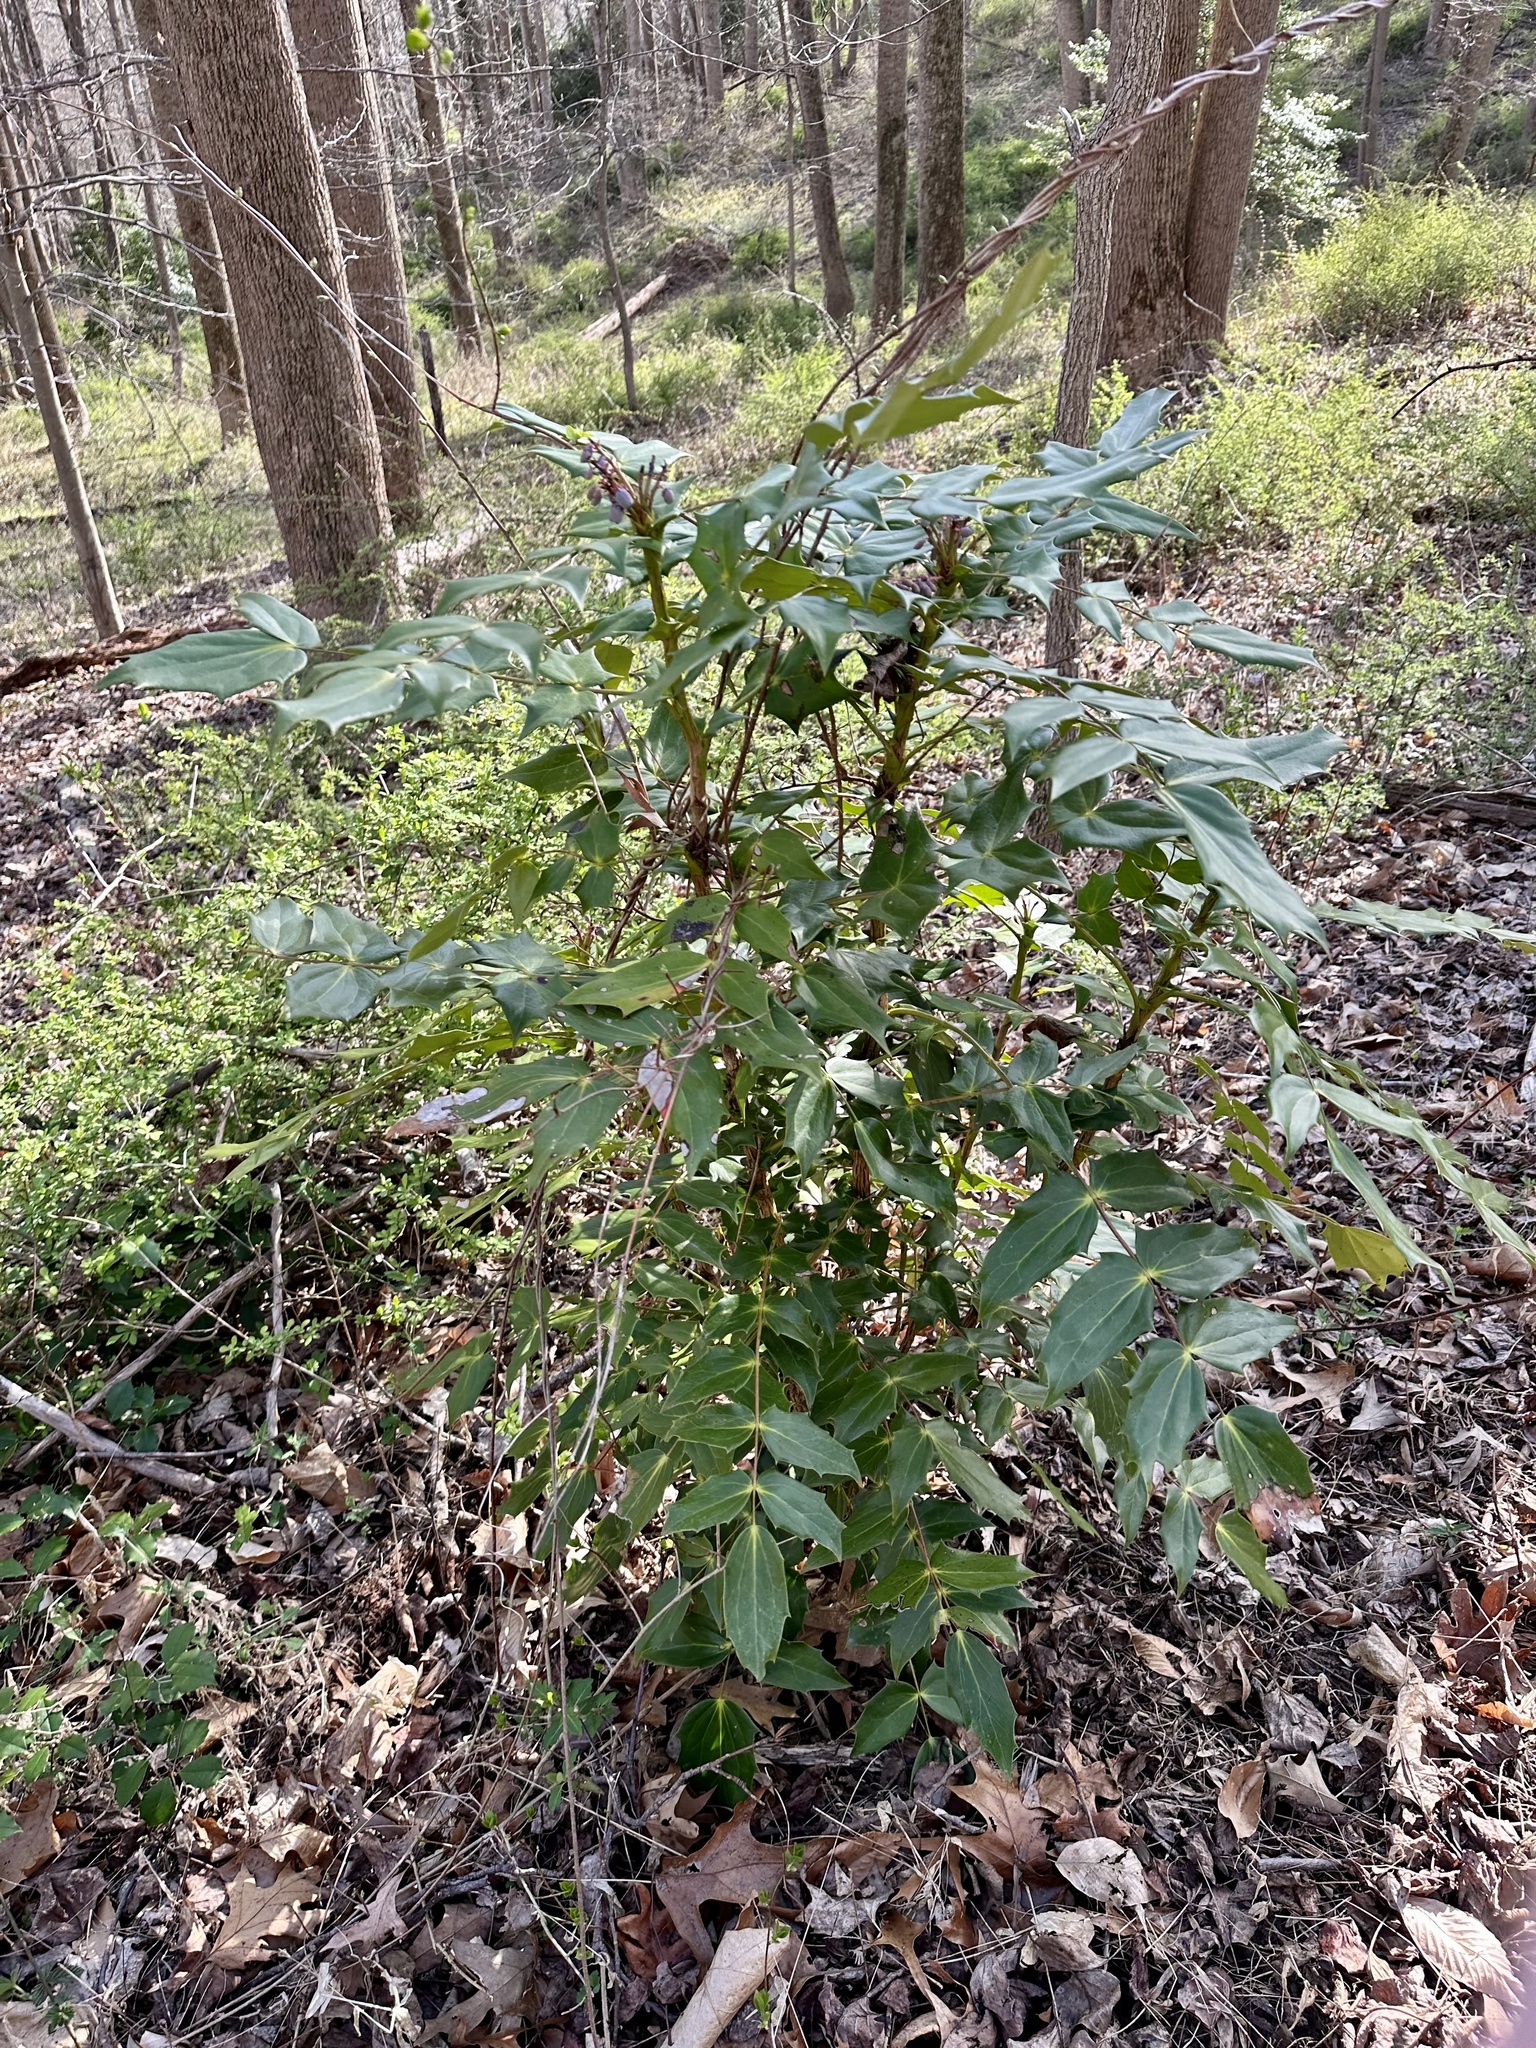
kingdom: Plantae
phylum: Tracheophyta
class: Magnoliopsida
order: Ranunculales
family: Berberidaceae
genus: Mahonia
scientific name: Mahonia bealei
